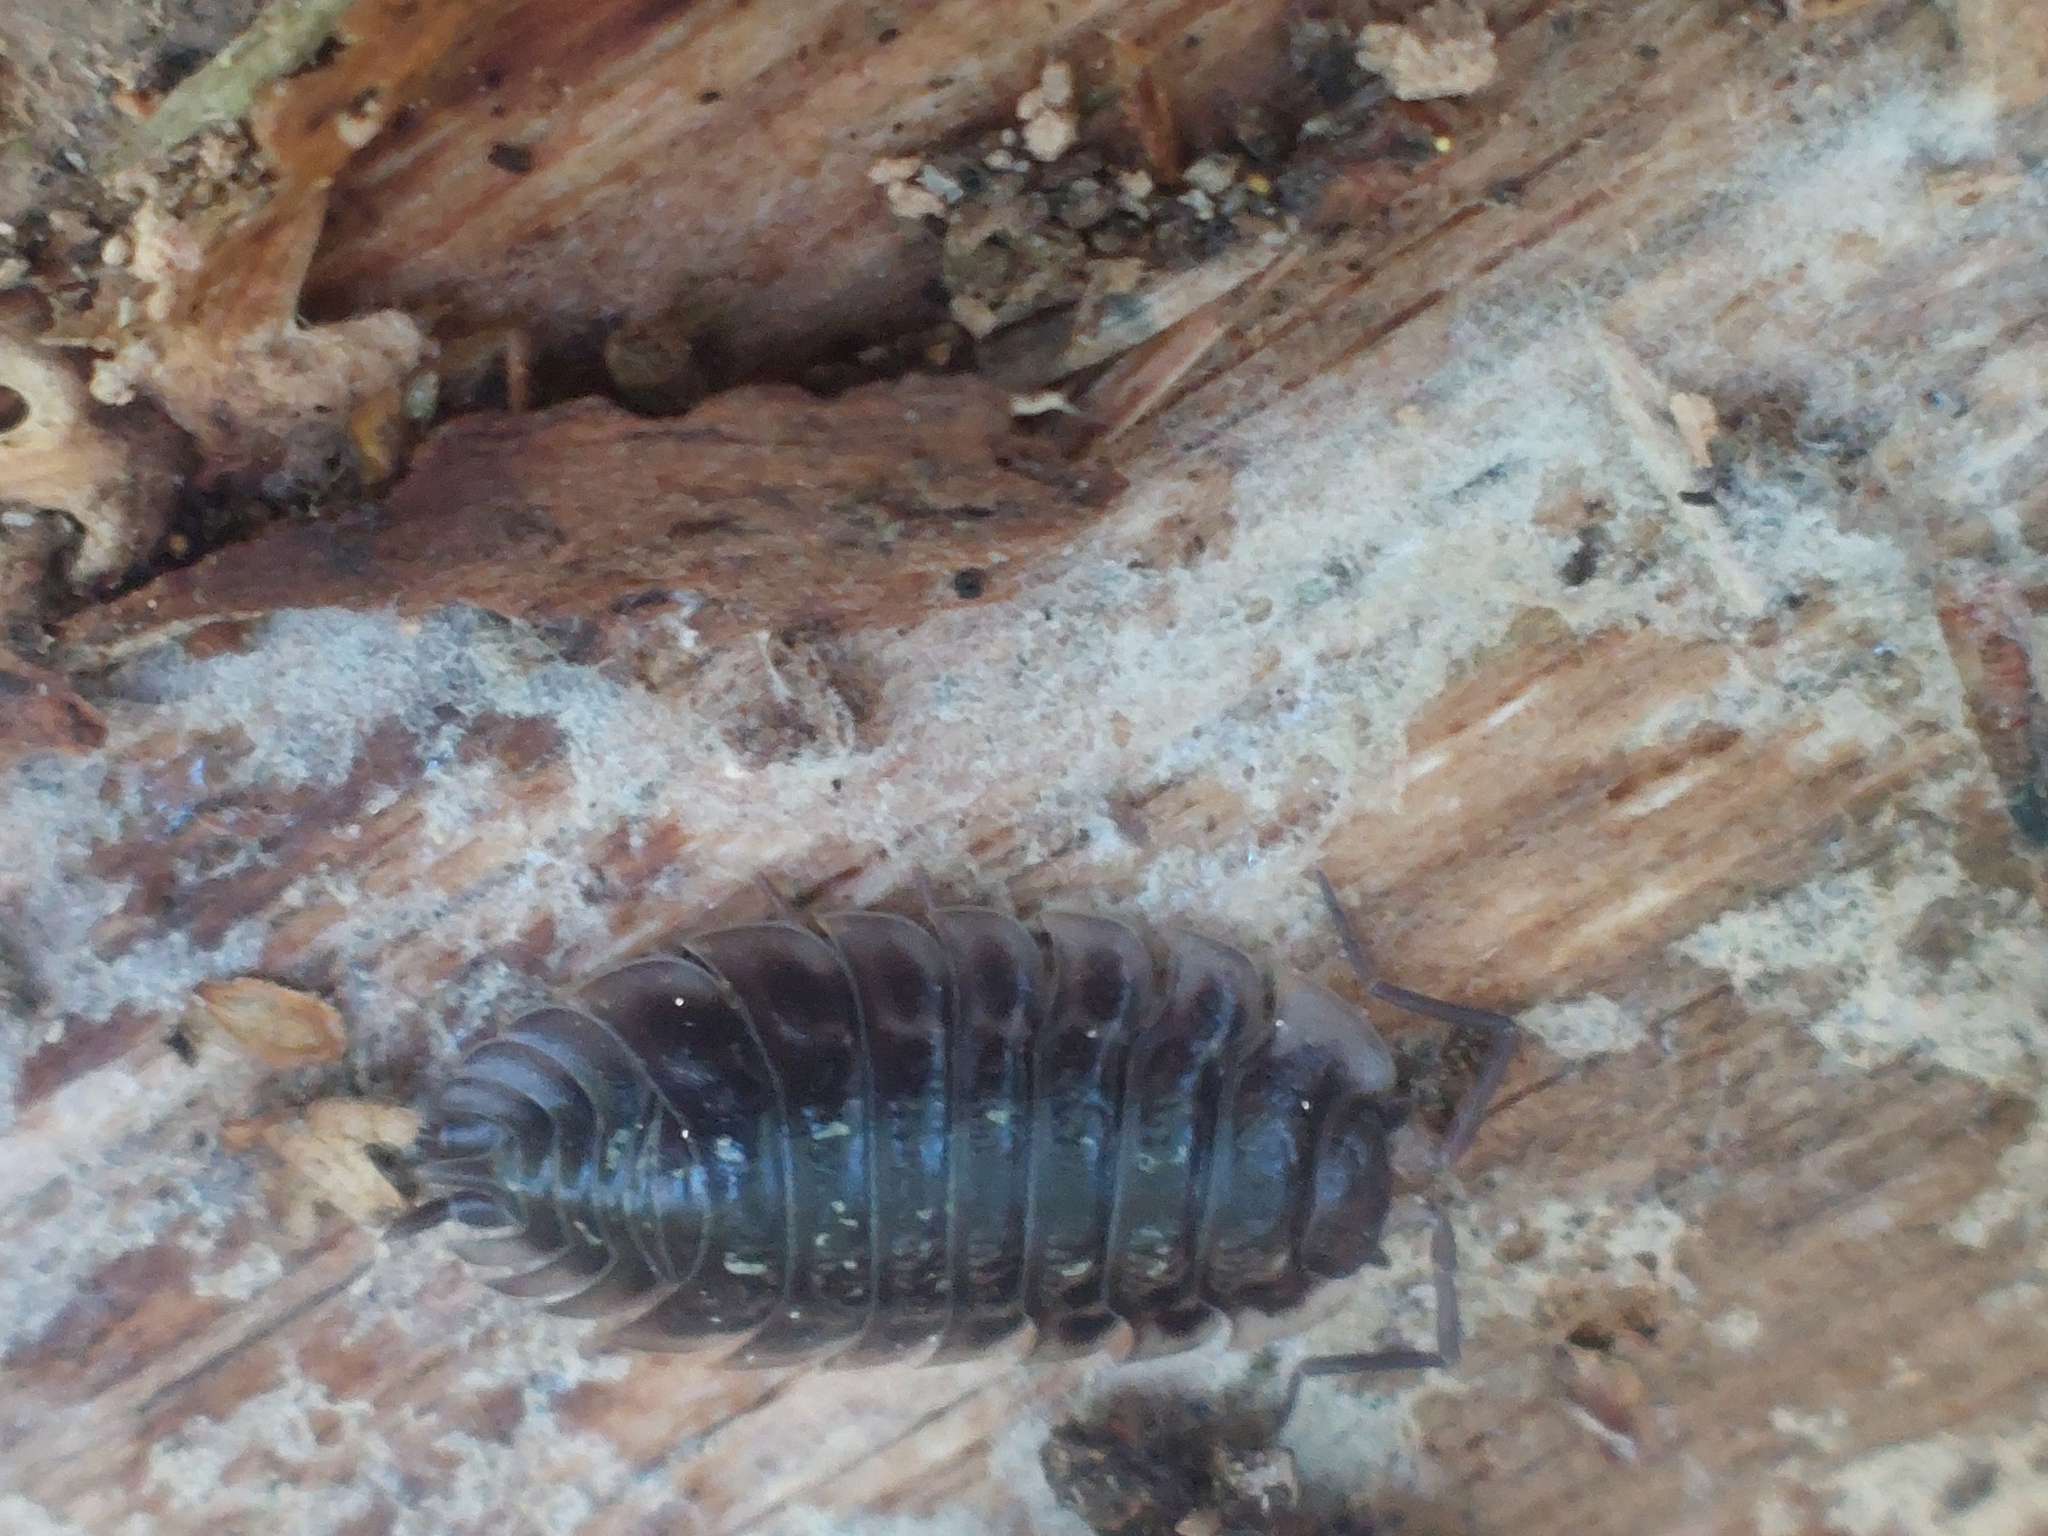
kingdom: Animalia
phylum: Arthropoda
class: Malacostraca
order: Isopoda
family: Oniscidae
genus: Oniscus
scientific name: Oniscus asellus
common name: Common shiny woodlouse
